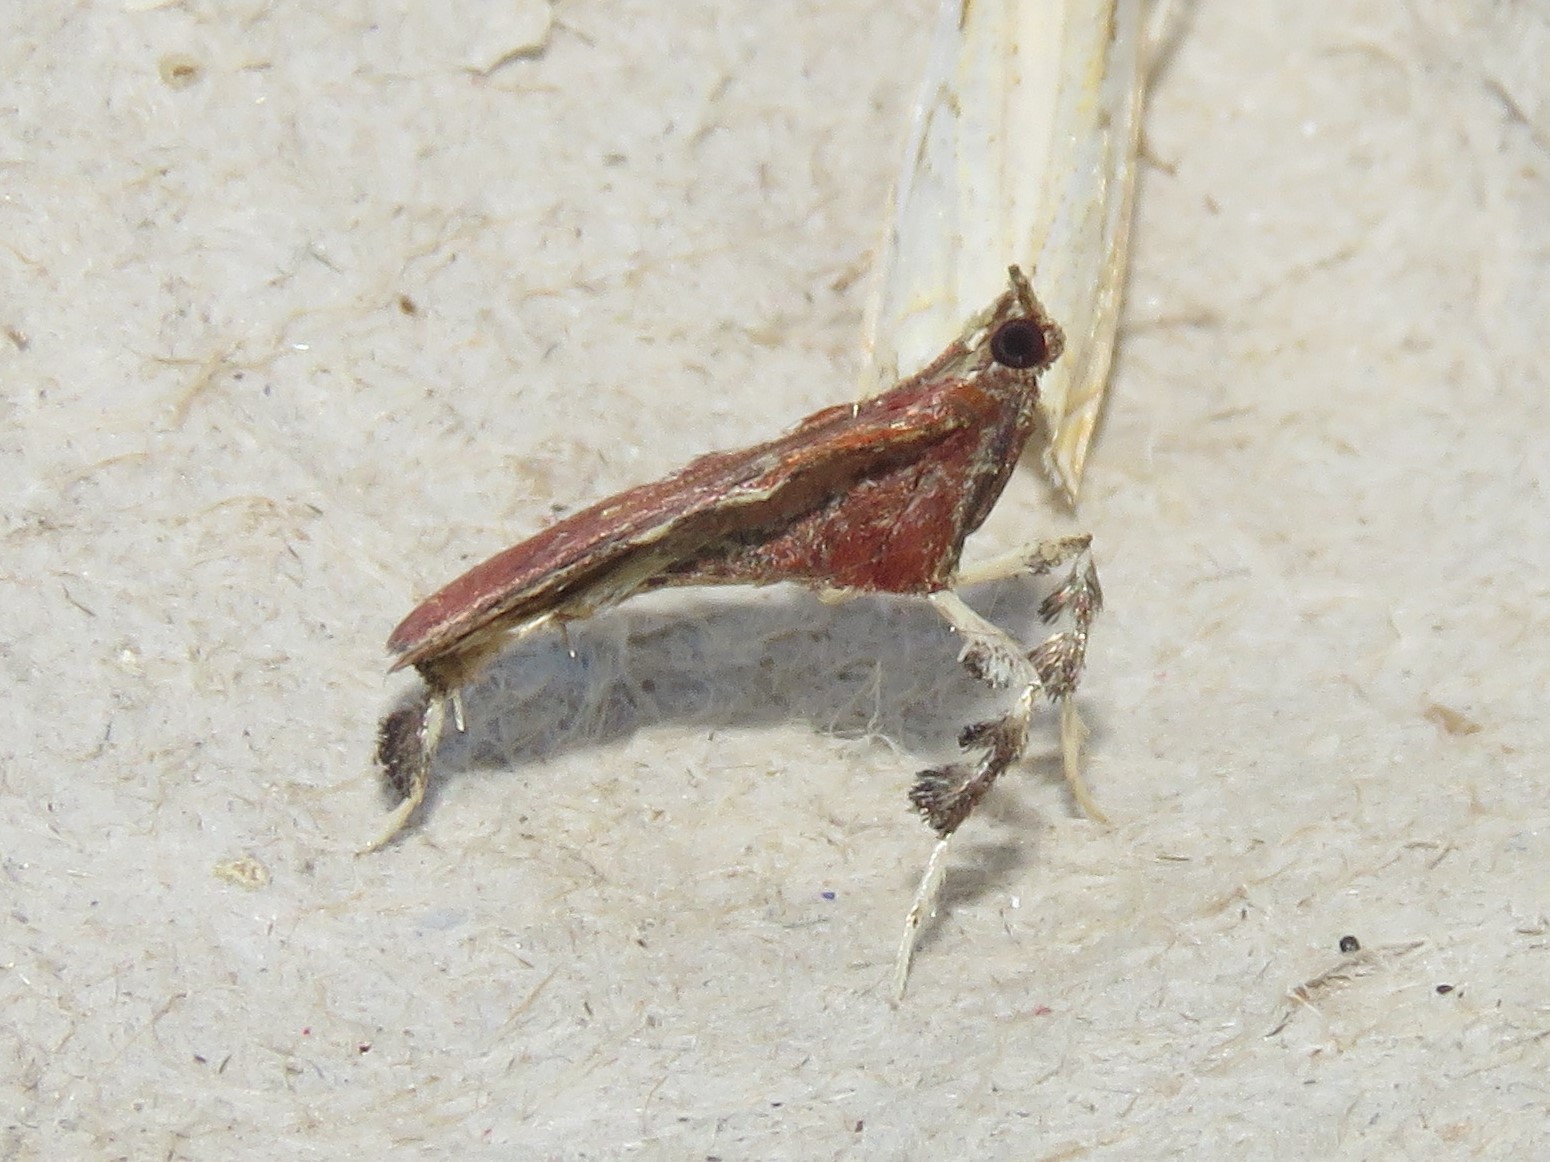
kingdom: Animalia
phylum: Arthropoda
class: Insecta
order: Lepidoptera
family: Pyralidae
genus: Galasa
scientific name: Galasa nigrinodis
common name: Boxwood leaftier moth
